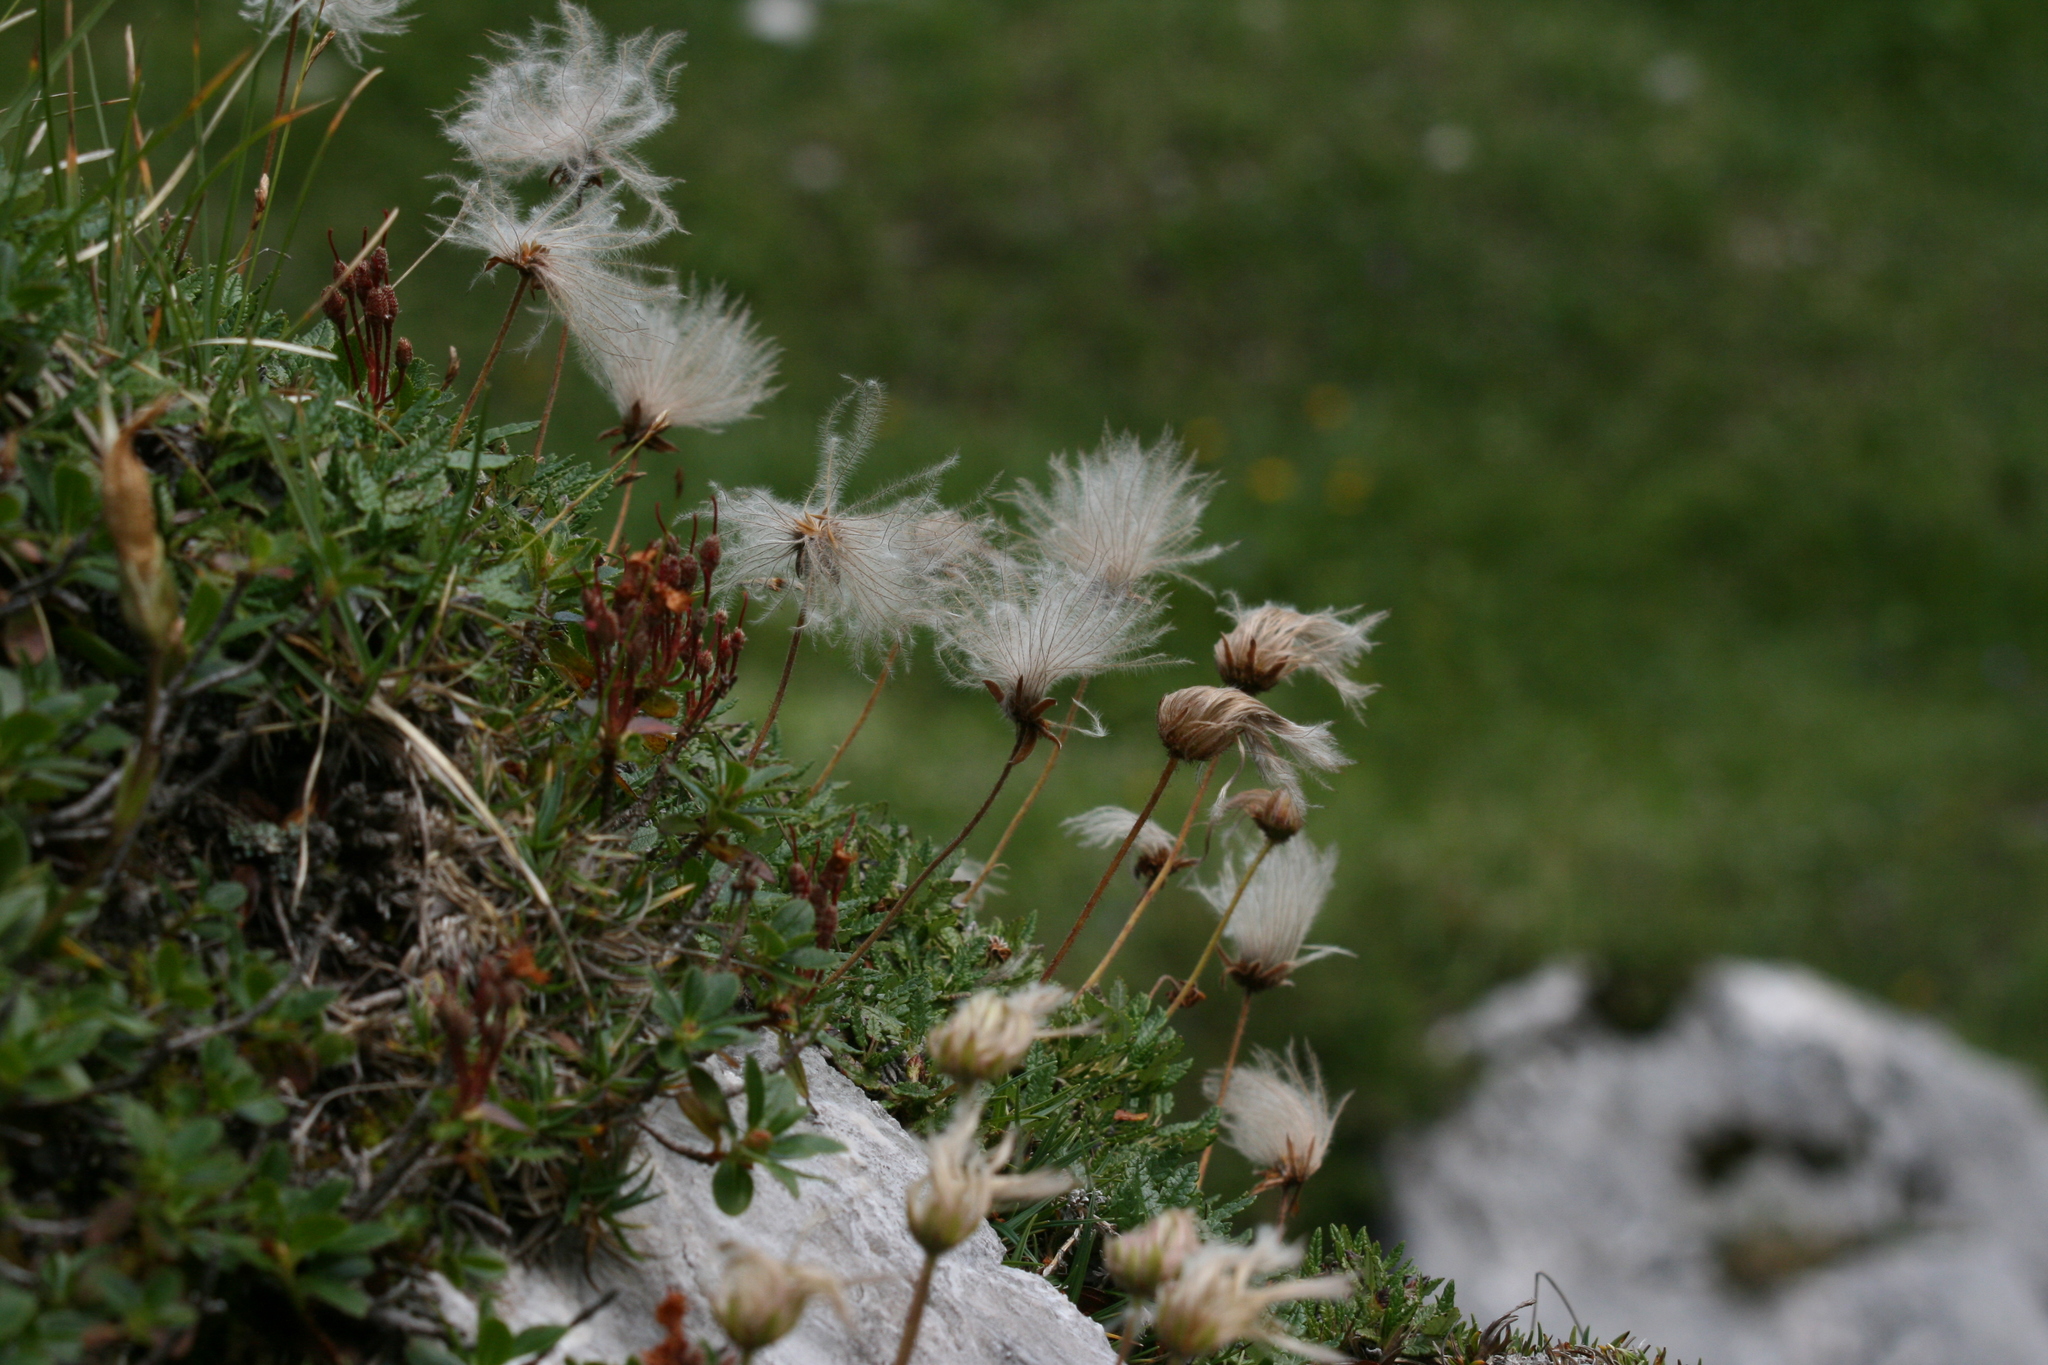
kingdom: Plantae
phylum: Tracheophyta
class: Magnoliopsida
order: Rosales
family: Rosaceae
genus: Dryas
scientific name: Dryas octopetala
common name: Eight-petal mountain-avens
